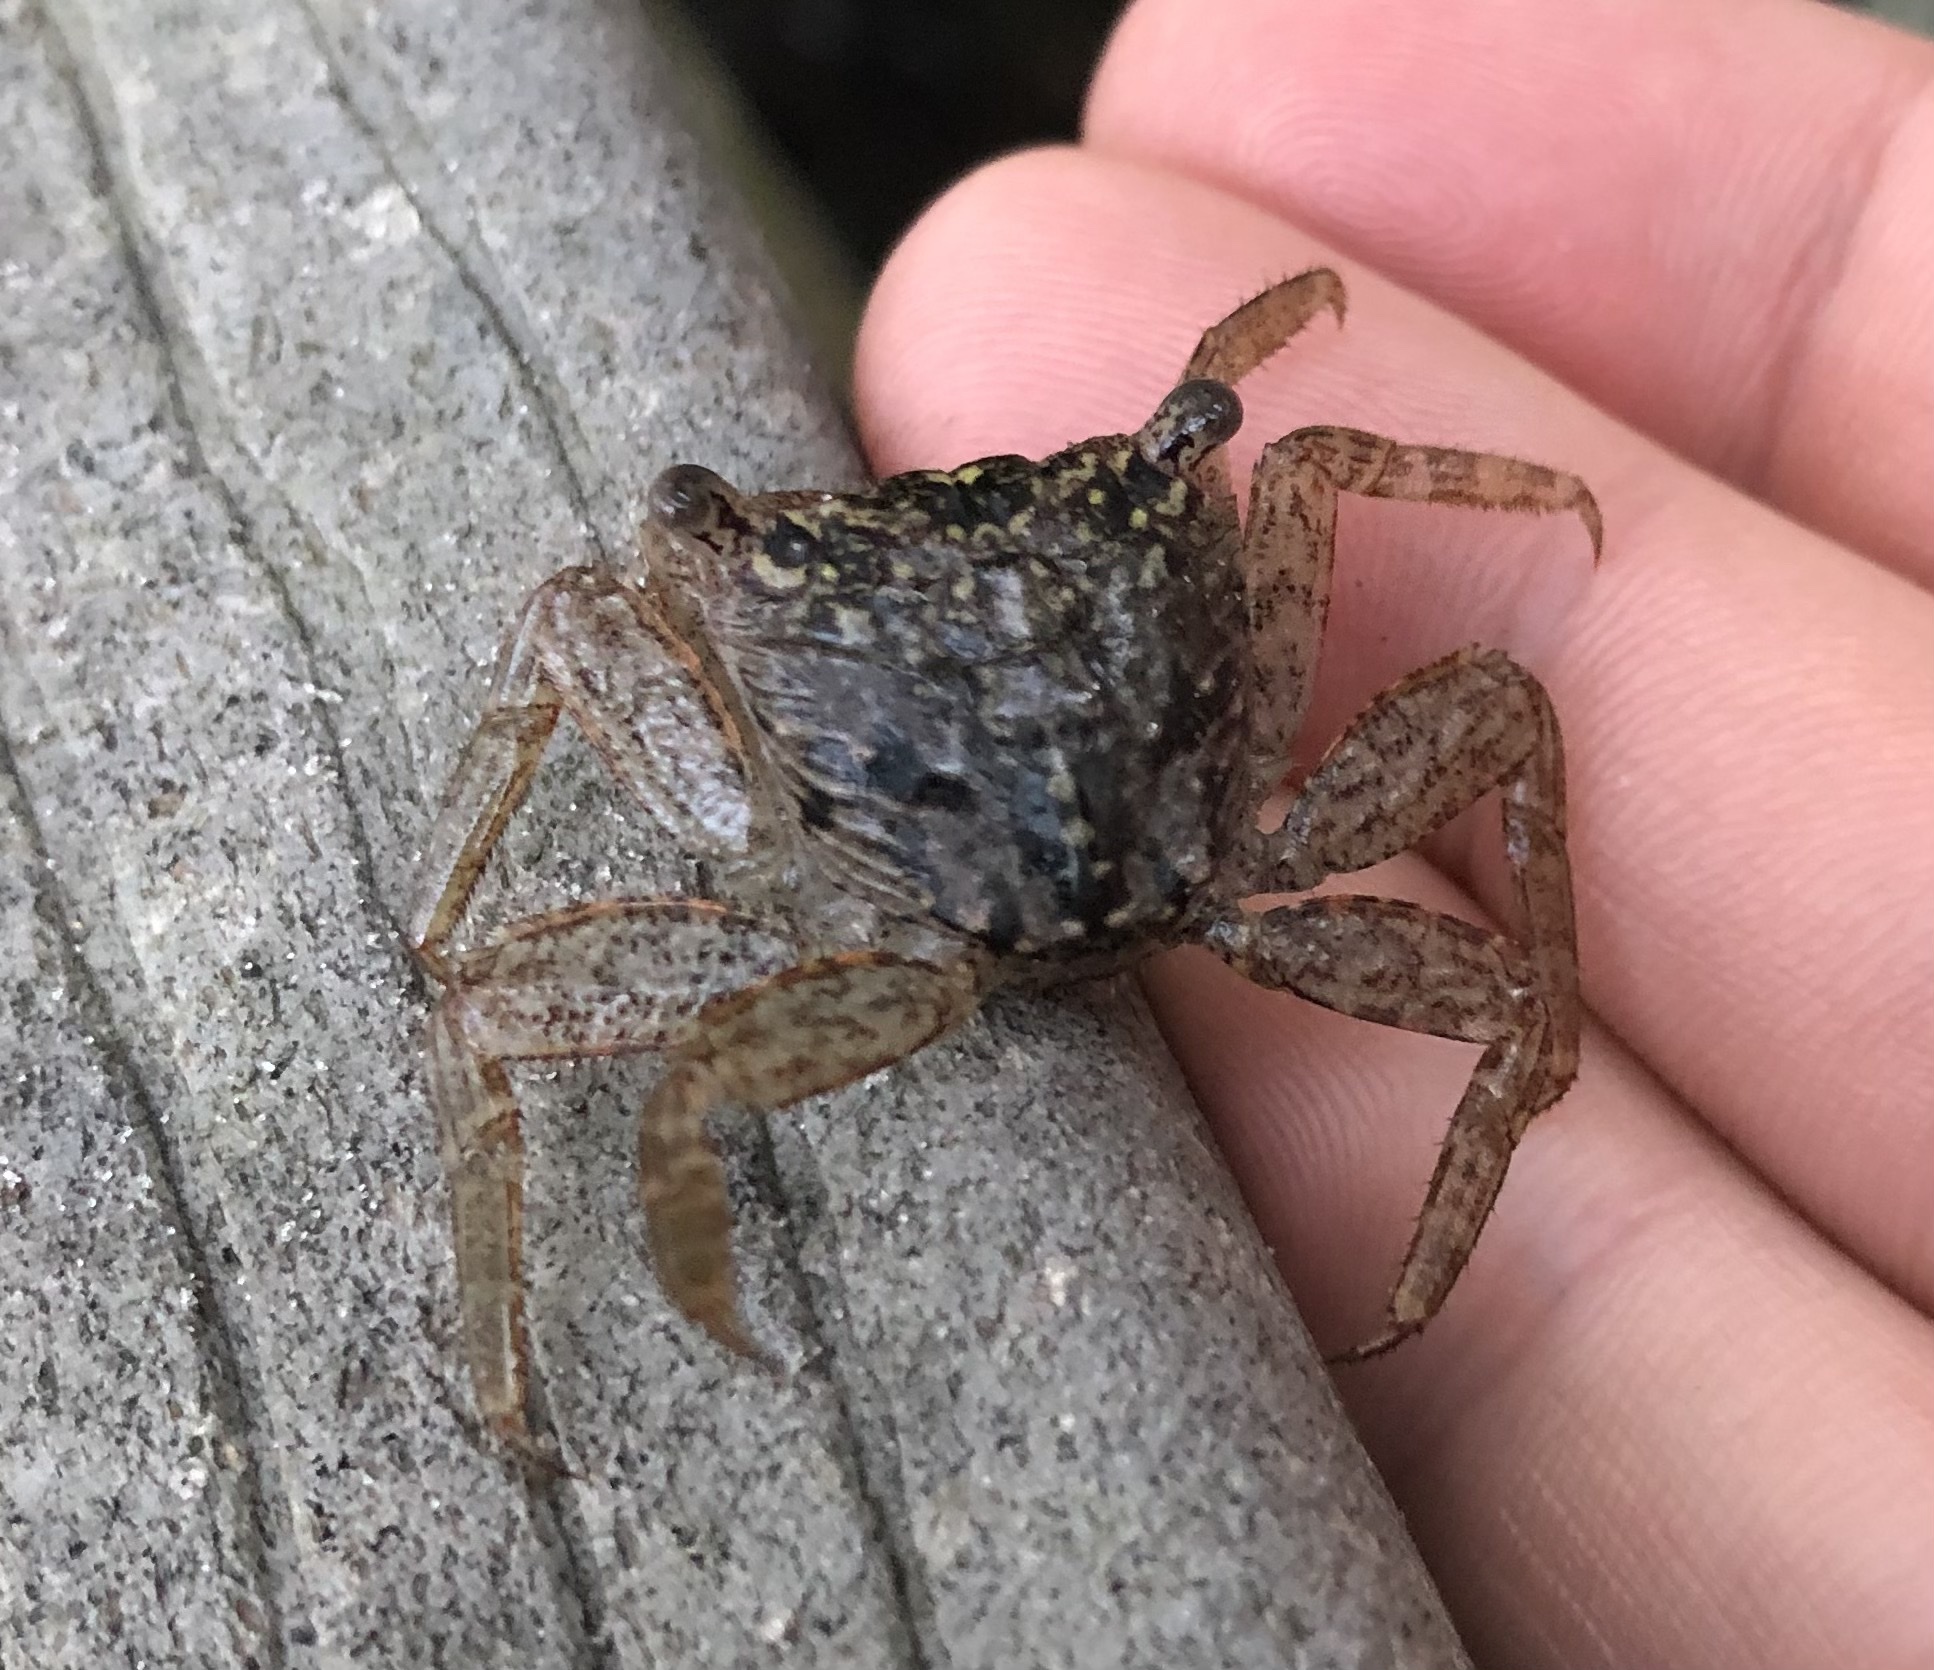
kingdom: Animalia
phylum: Arthropoda
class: Malacostraca
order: Decapoda
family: Sesarmidae
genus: Aratus
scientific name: Aratus pisonii
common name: Mangrove crab
